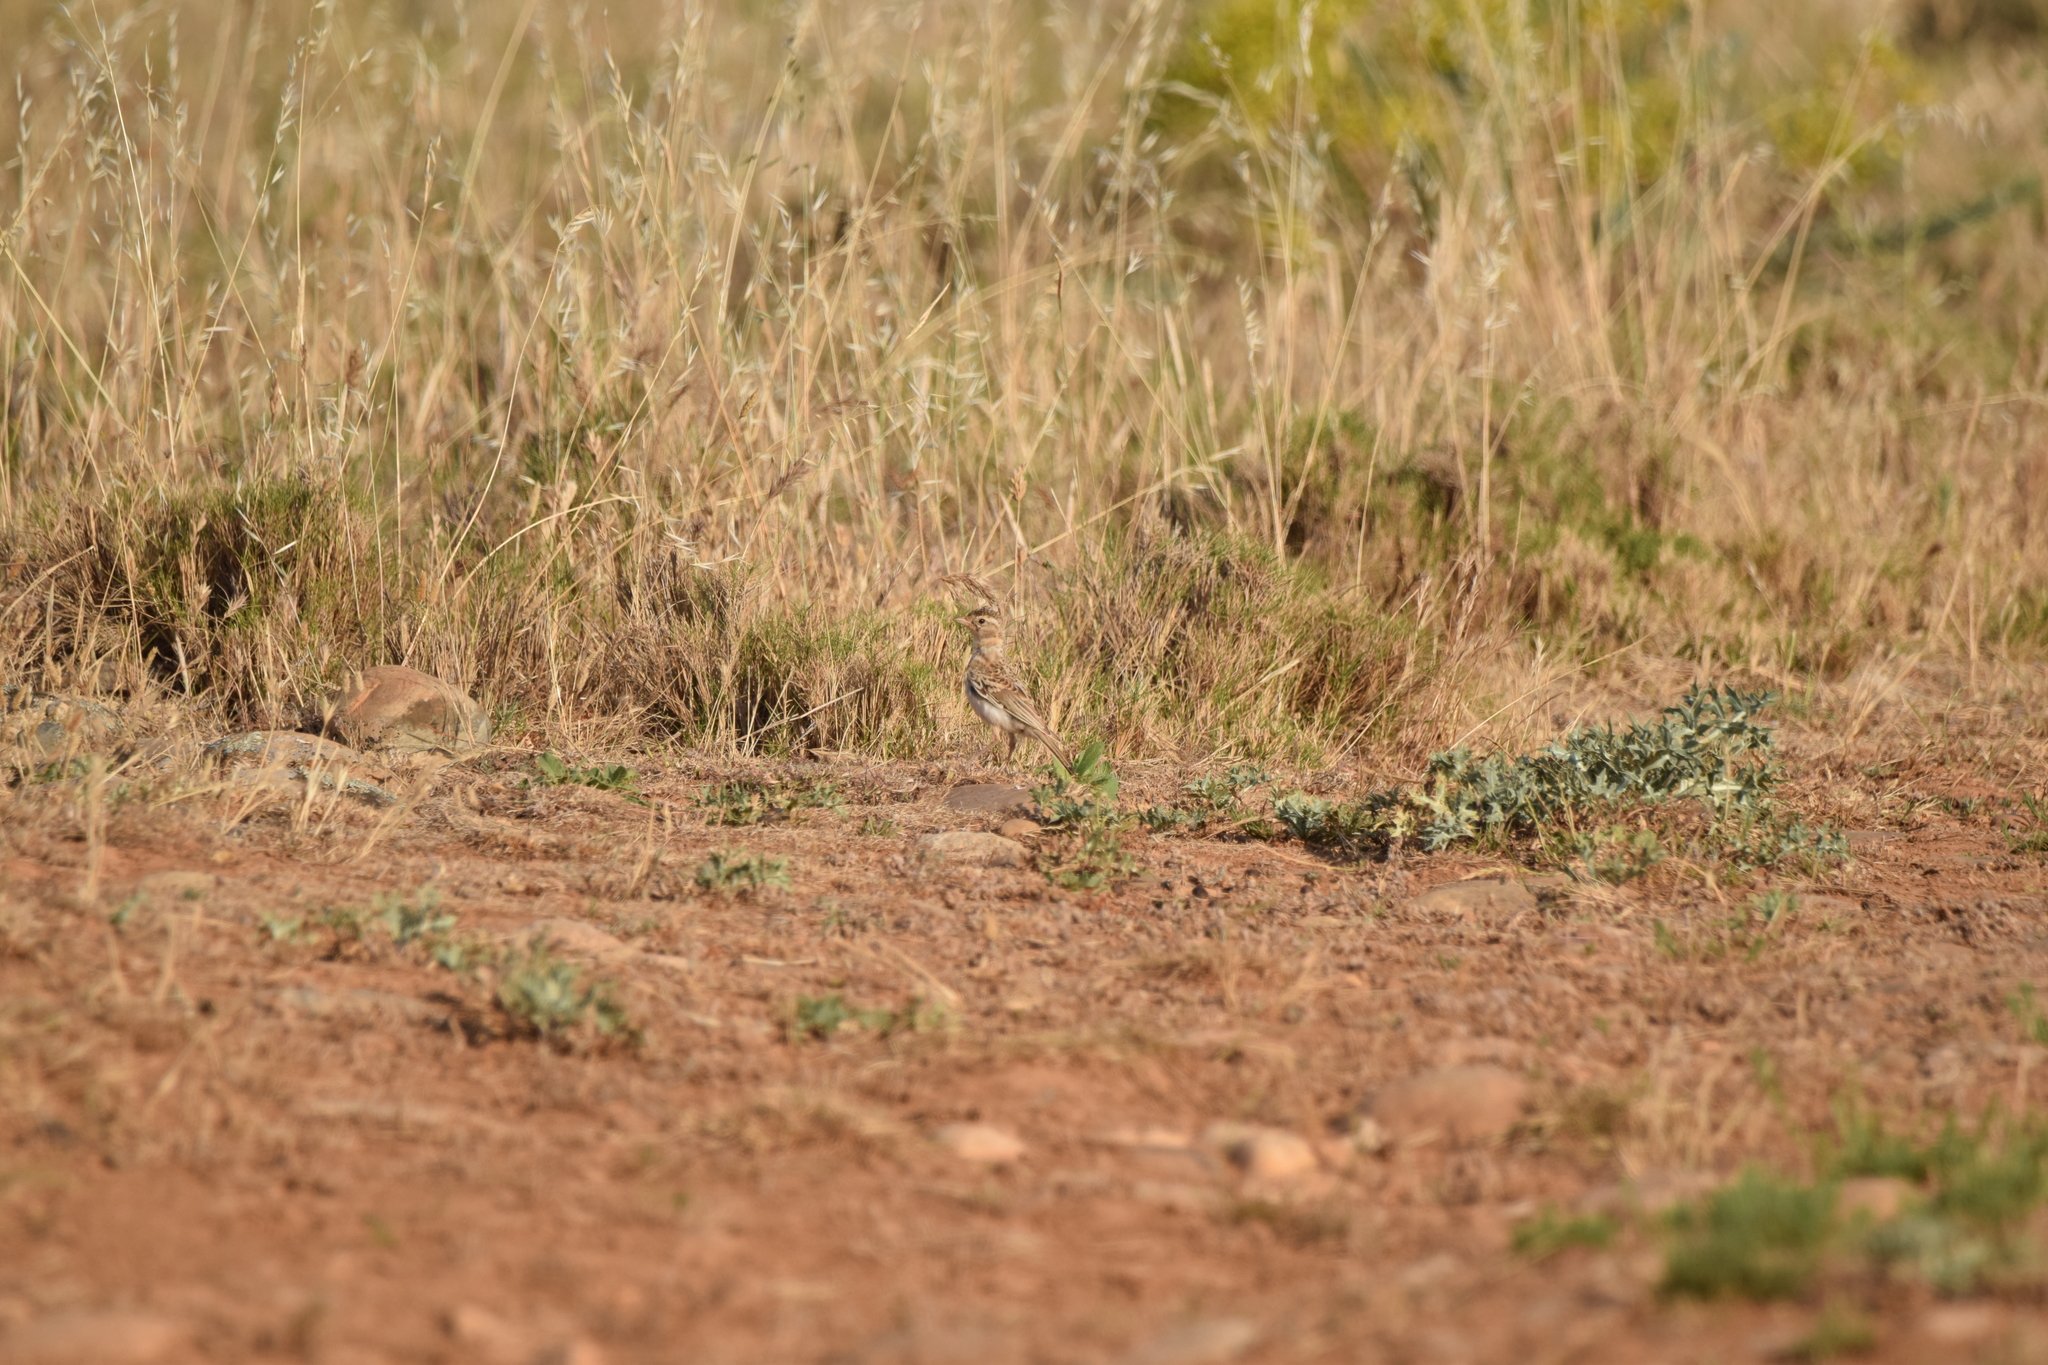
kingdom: Animalia
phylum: Chordata
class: Aves
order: Passeriformes
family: Alaudidae
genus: Calandrella
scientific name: Calandrella brachydactyla
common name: Greater short-toed lark
